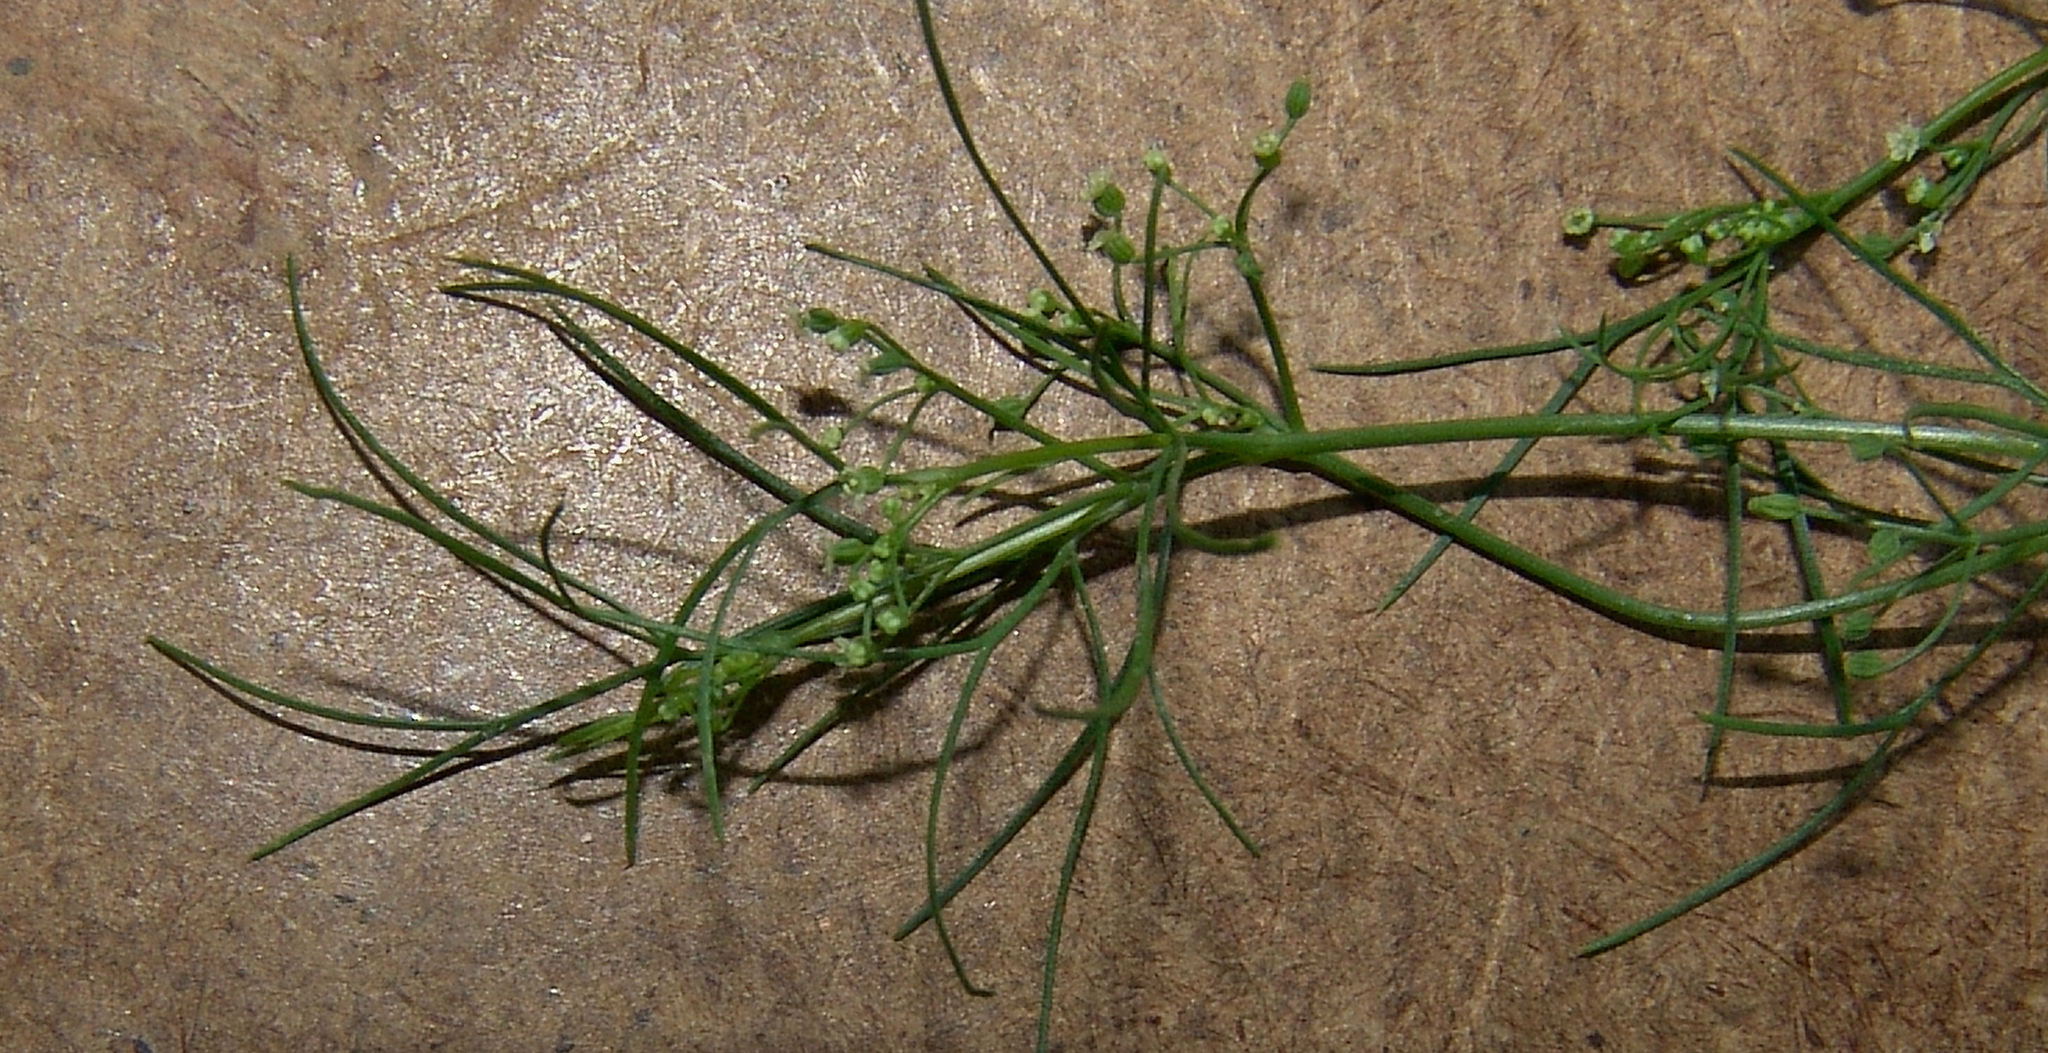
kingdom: Plantae
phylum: Tracheophyta
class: Magnoliopsida
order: Apiales
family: Apiaceae
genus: Cyclospermum
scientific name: Cyclospermum leptophyllum
